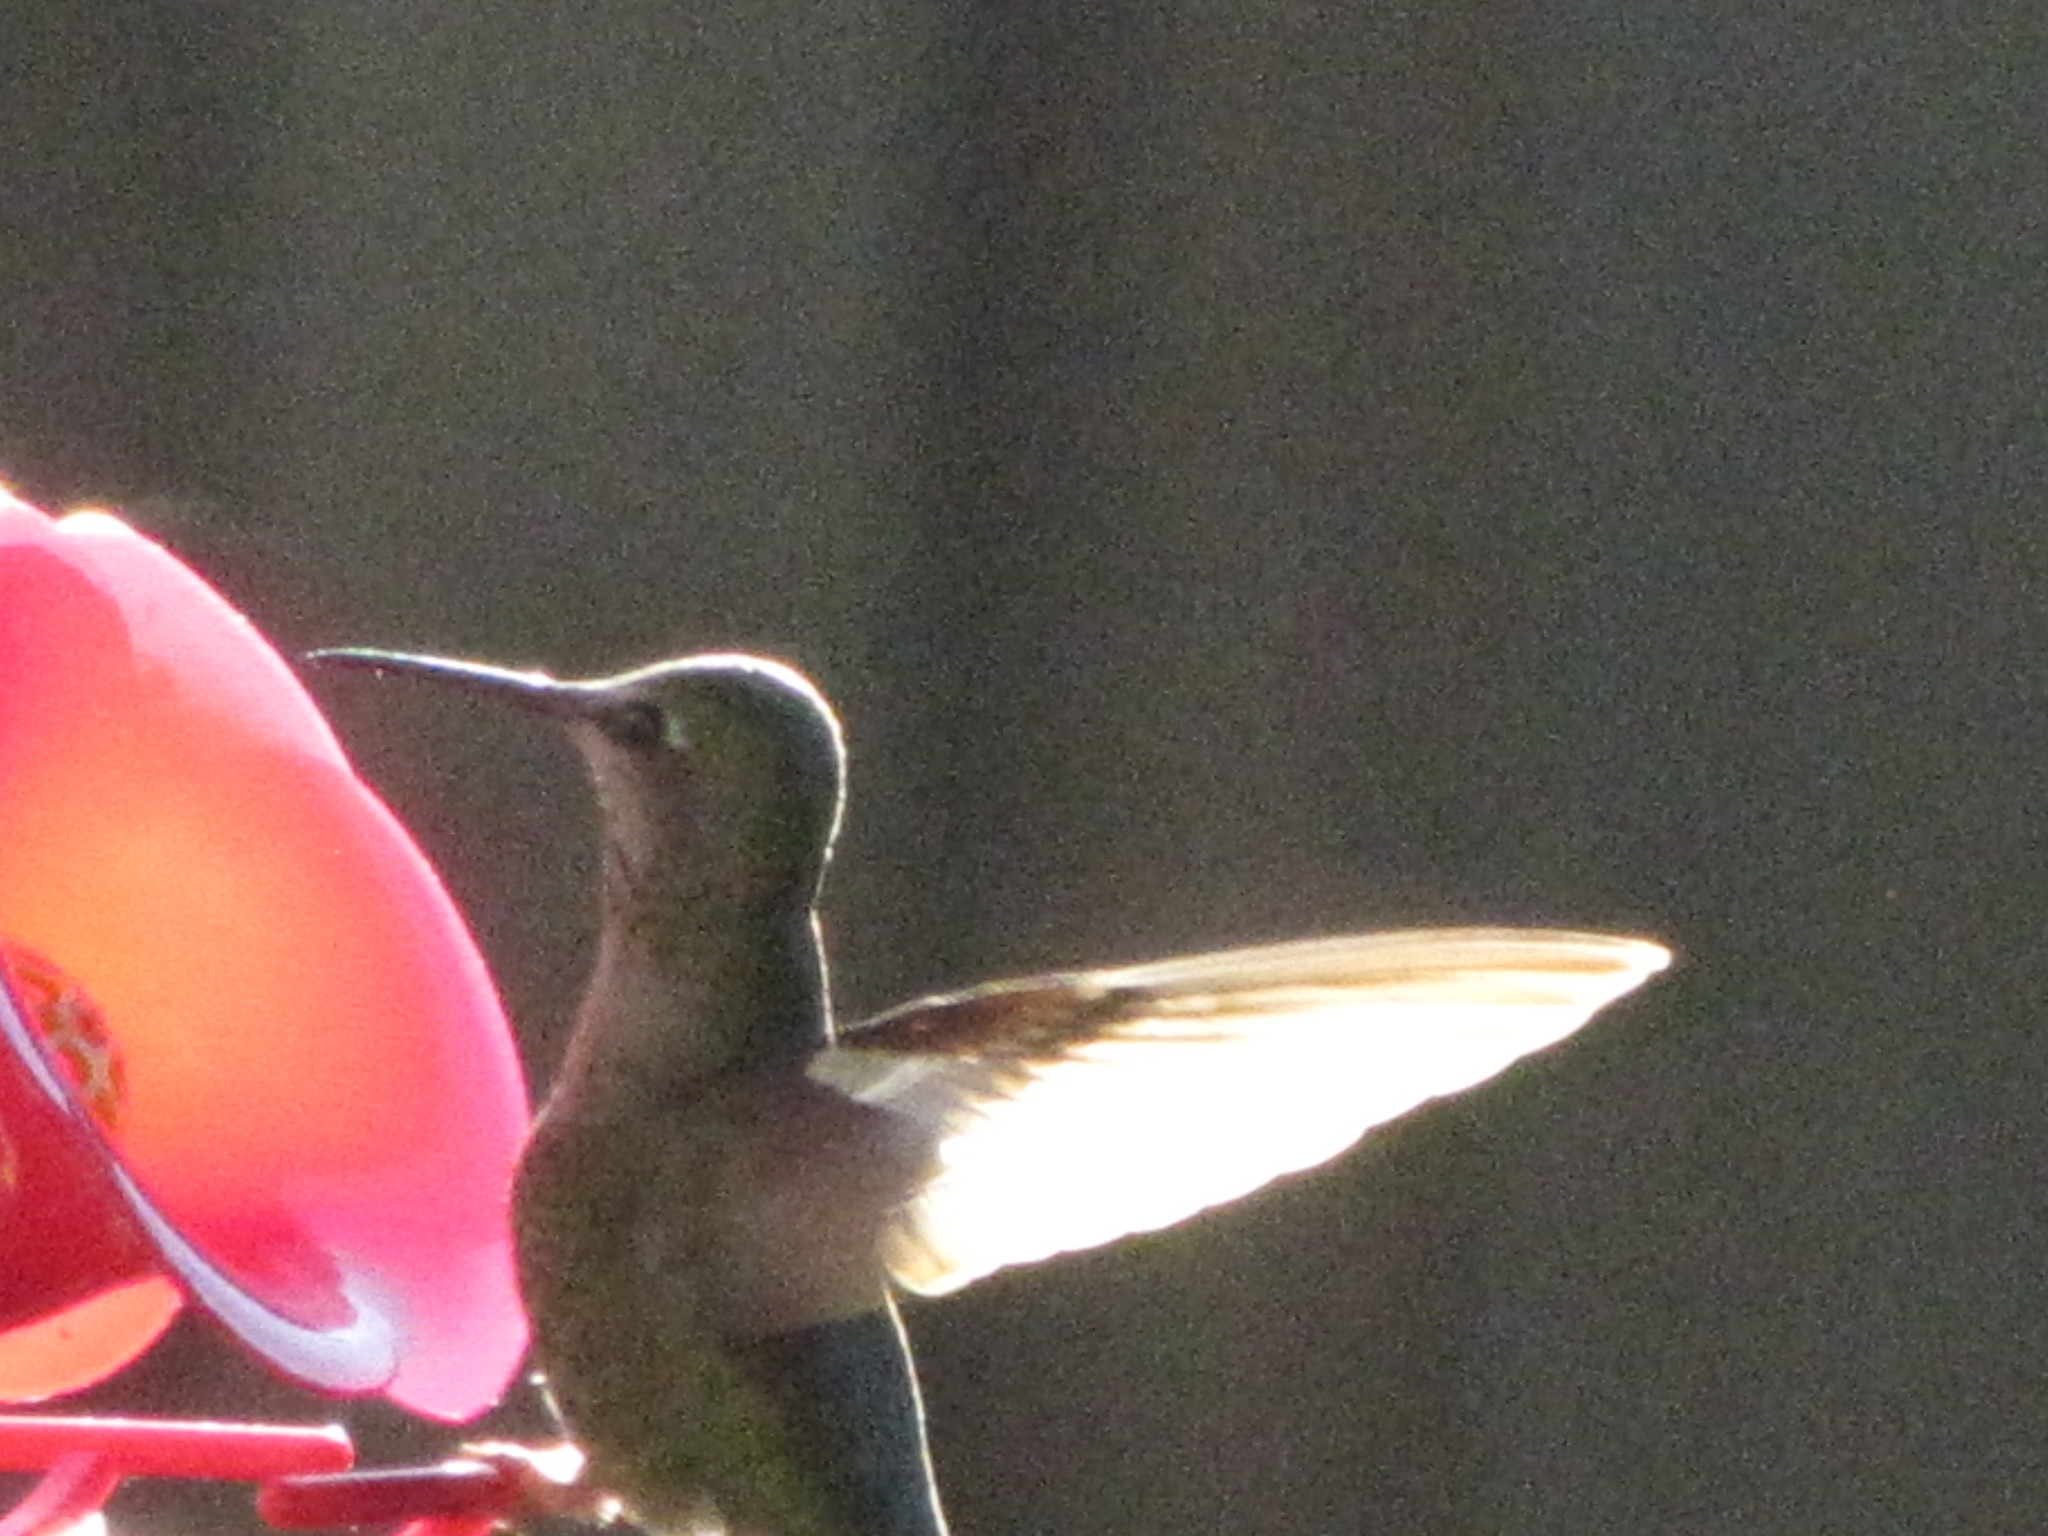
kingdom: Animalia
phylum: Chordata
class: Aves
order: Apodiformes
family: Trochilidae
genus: Calypte
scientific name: Calypte anna
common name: Anna's hummingbird
